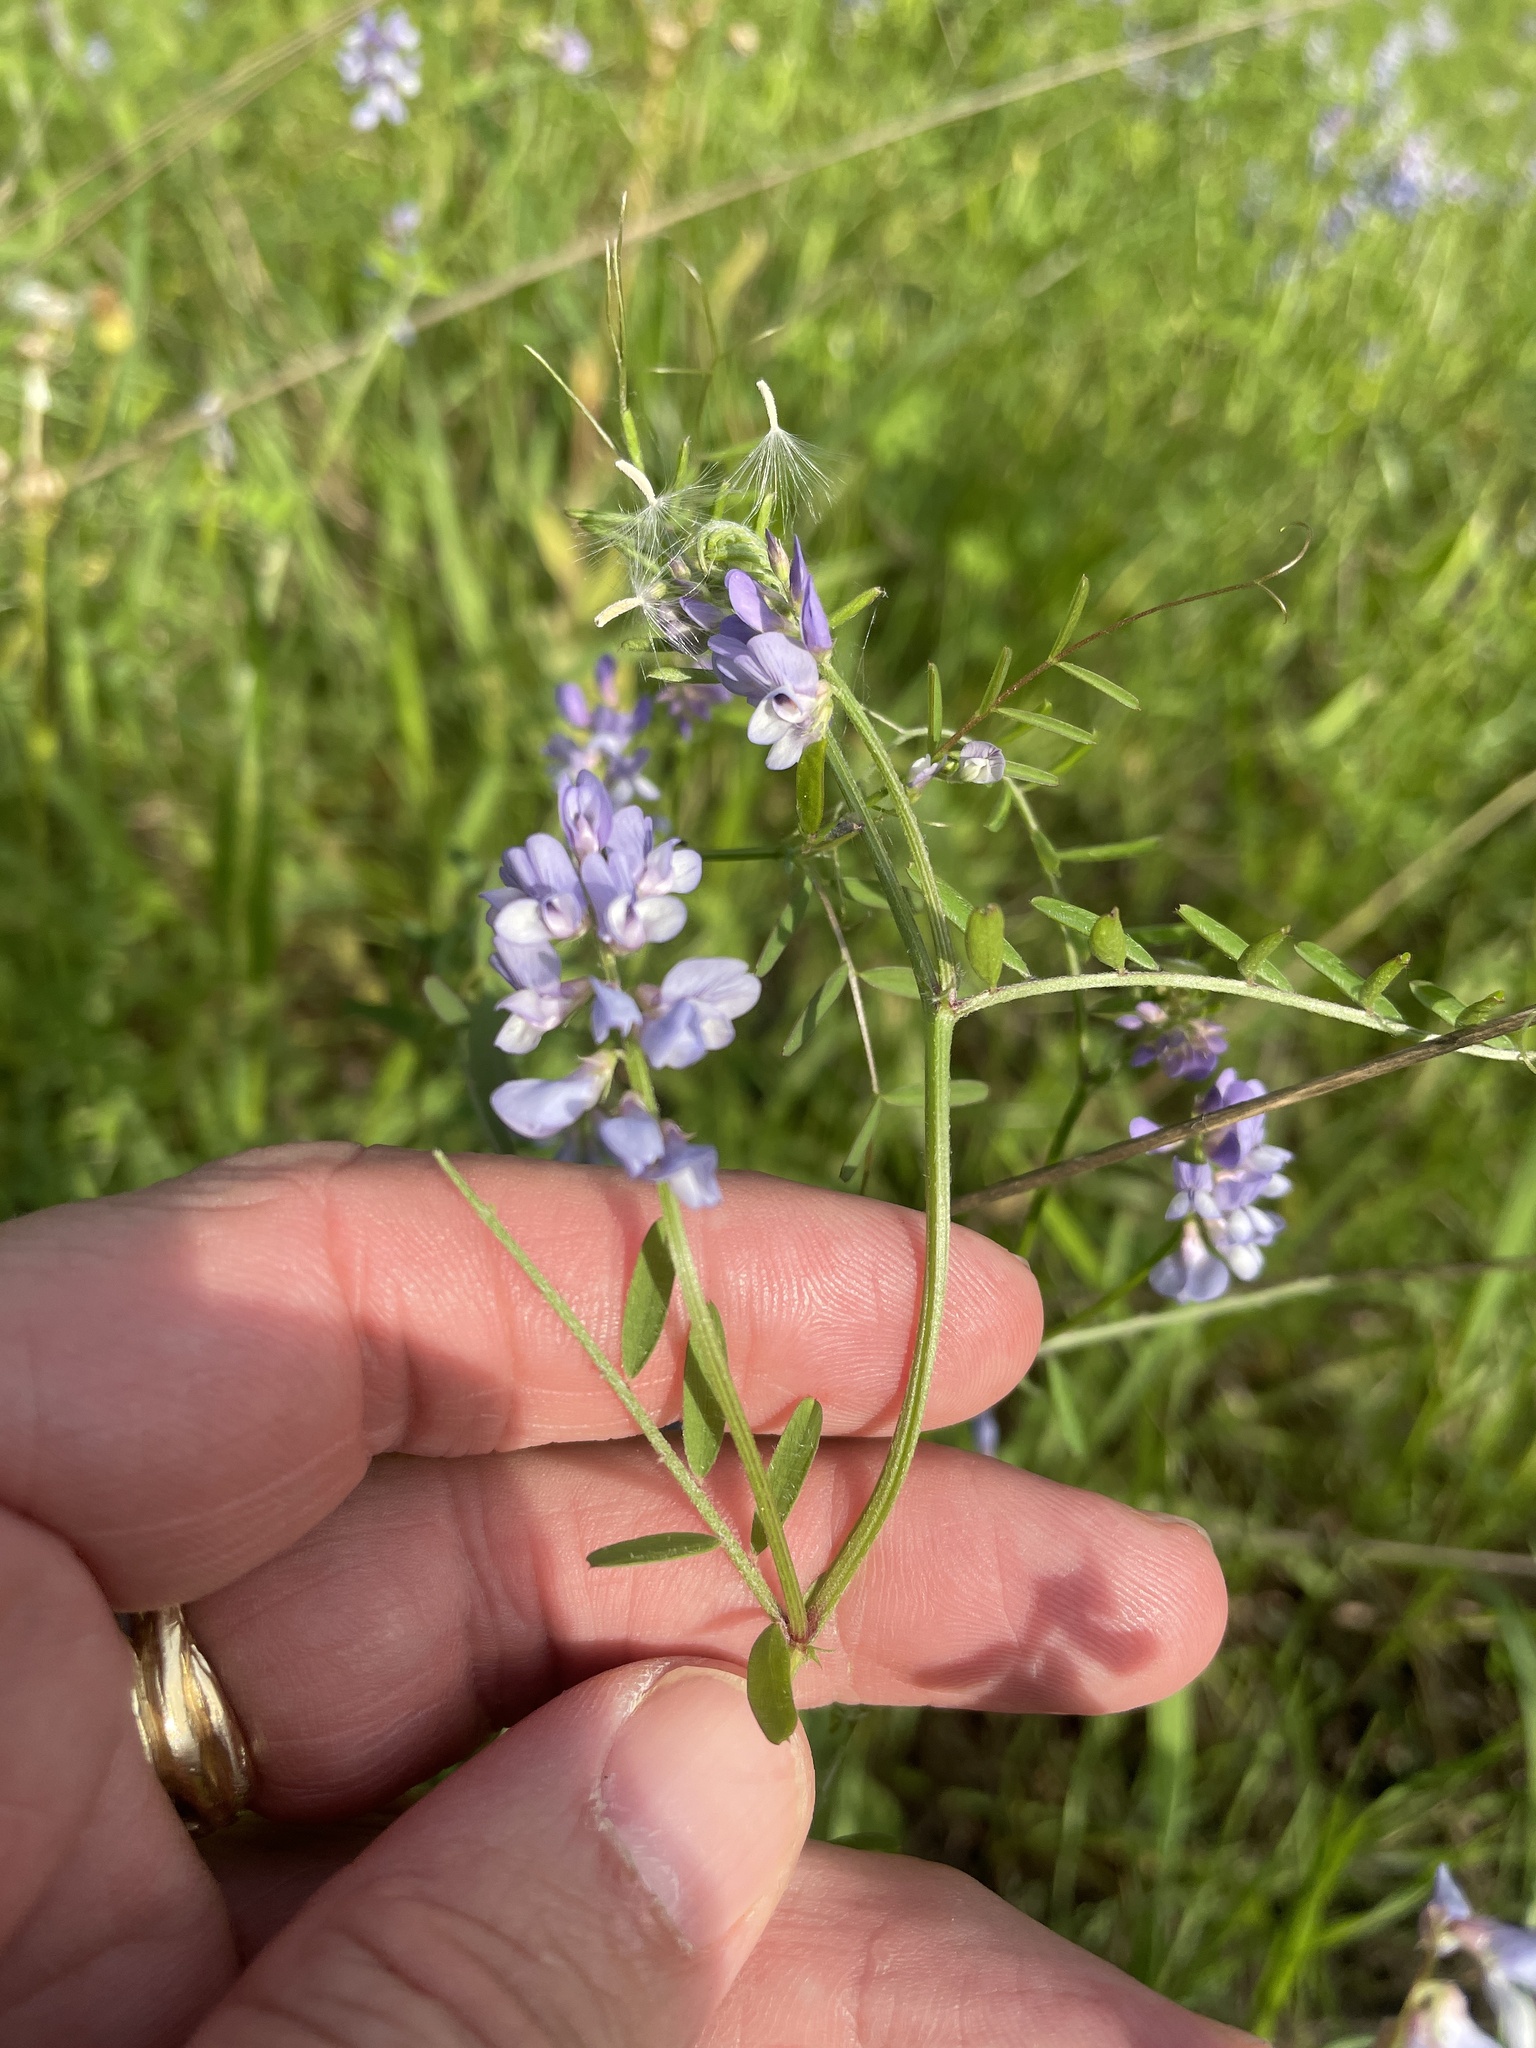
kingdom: Plantae
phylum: Tracheophyta
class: Magnoliopsida
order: Fabales
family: Fabaceae
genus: Vicia
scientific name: Vicia ludoviciana
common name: Louisiana vetch
